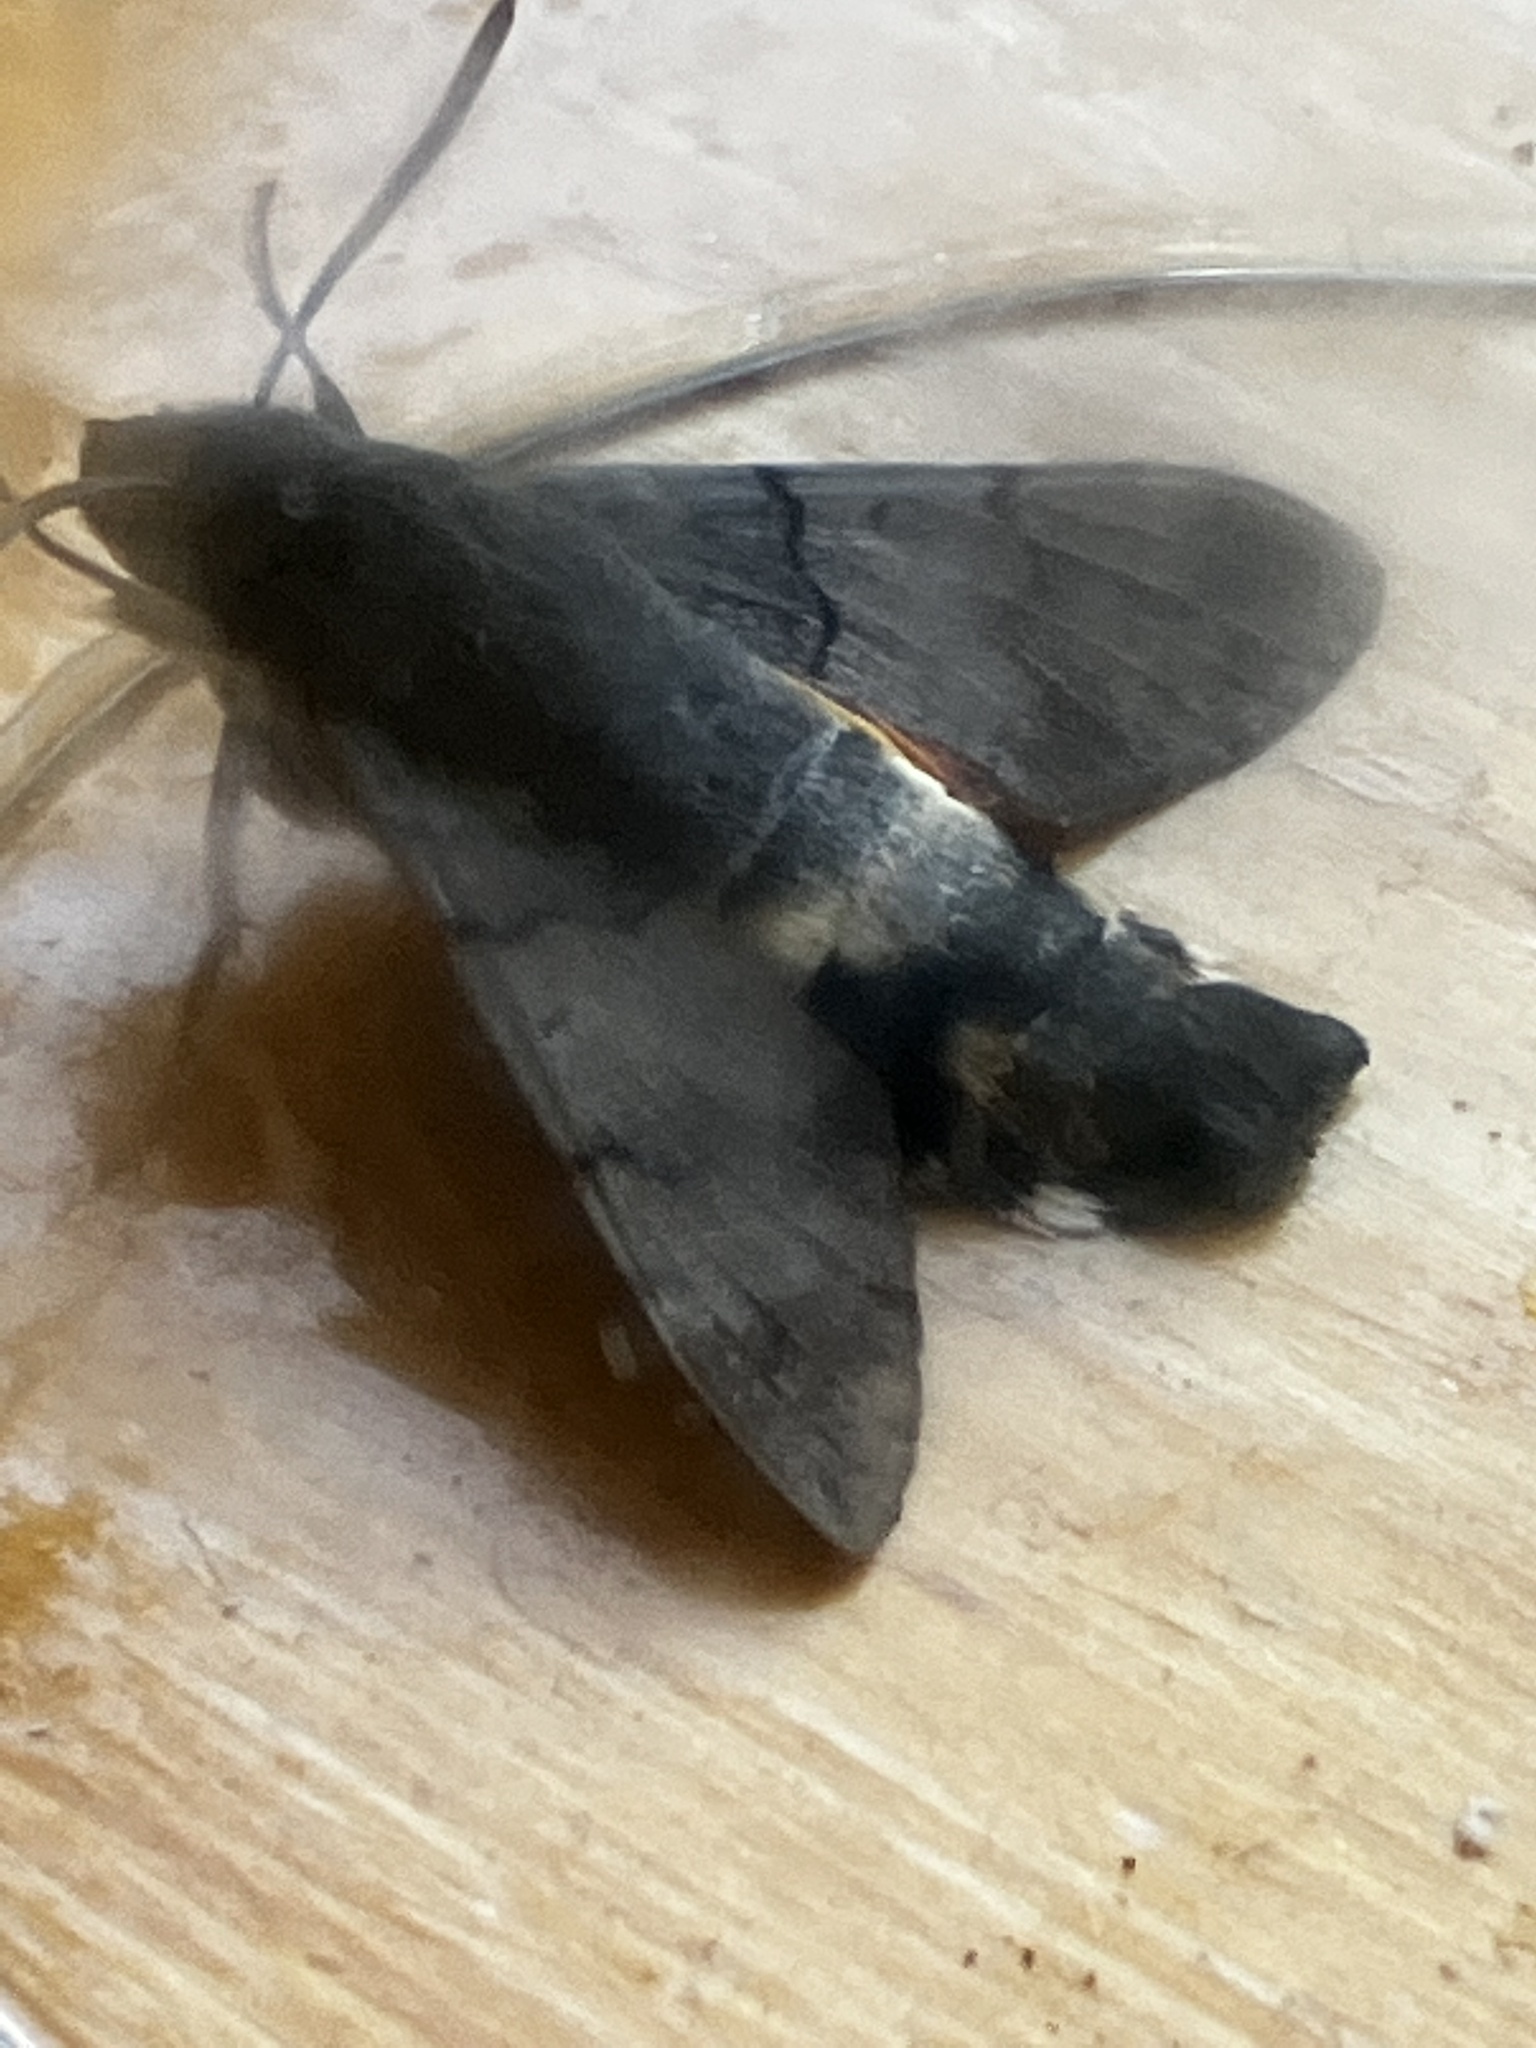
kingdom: Animalia
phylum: Arthropoda
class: Insecta
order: Lepidoptera
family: Sphingidae
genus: Macroglossum
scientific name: Macroglossum stellatarum
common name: Humming-bird hawk-moth
